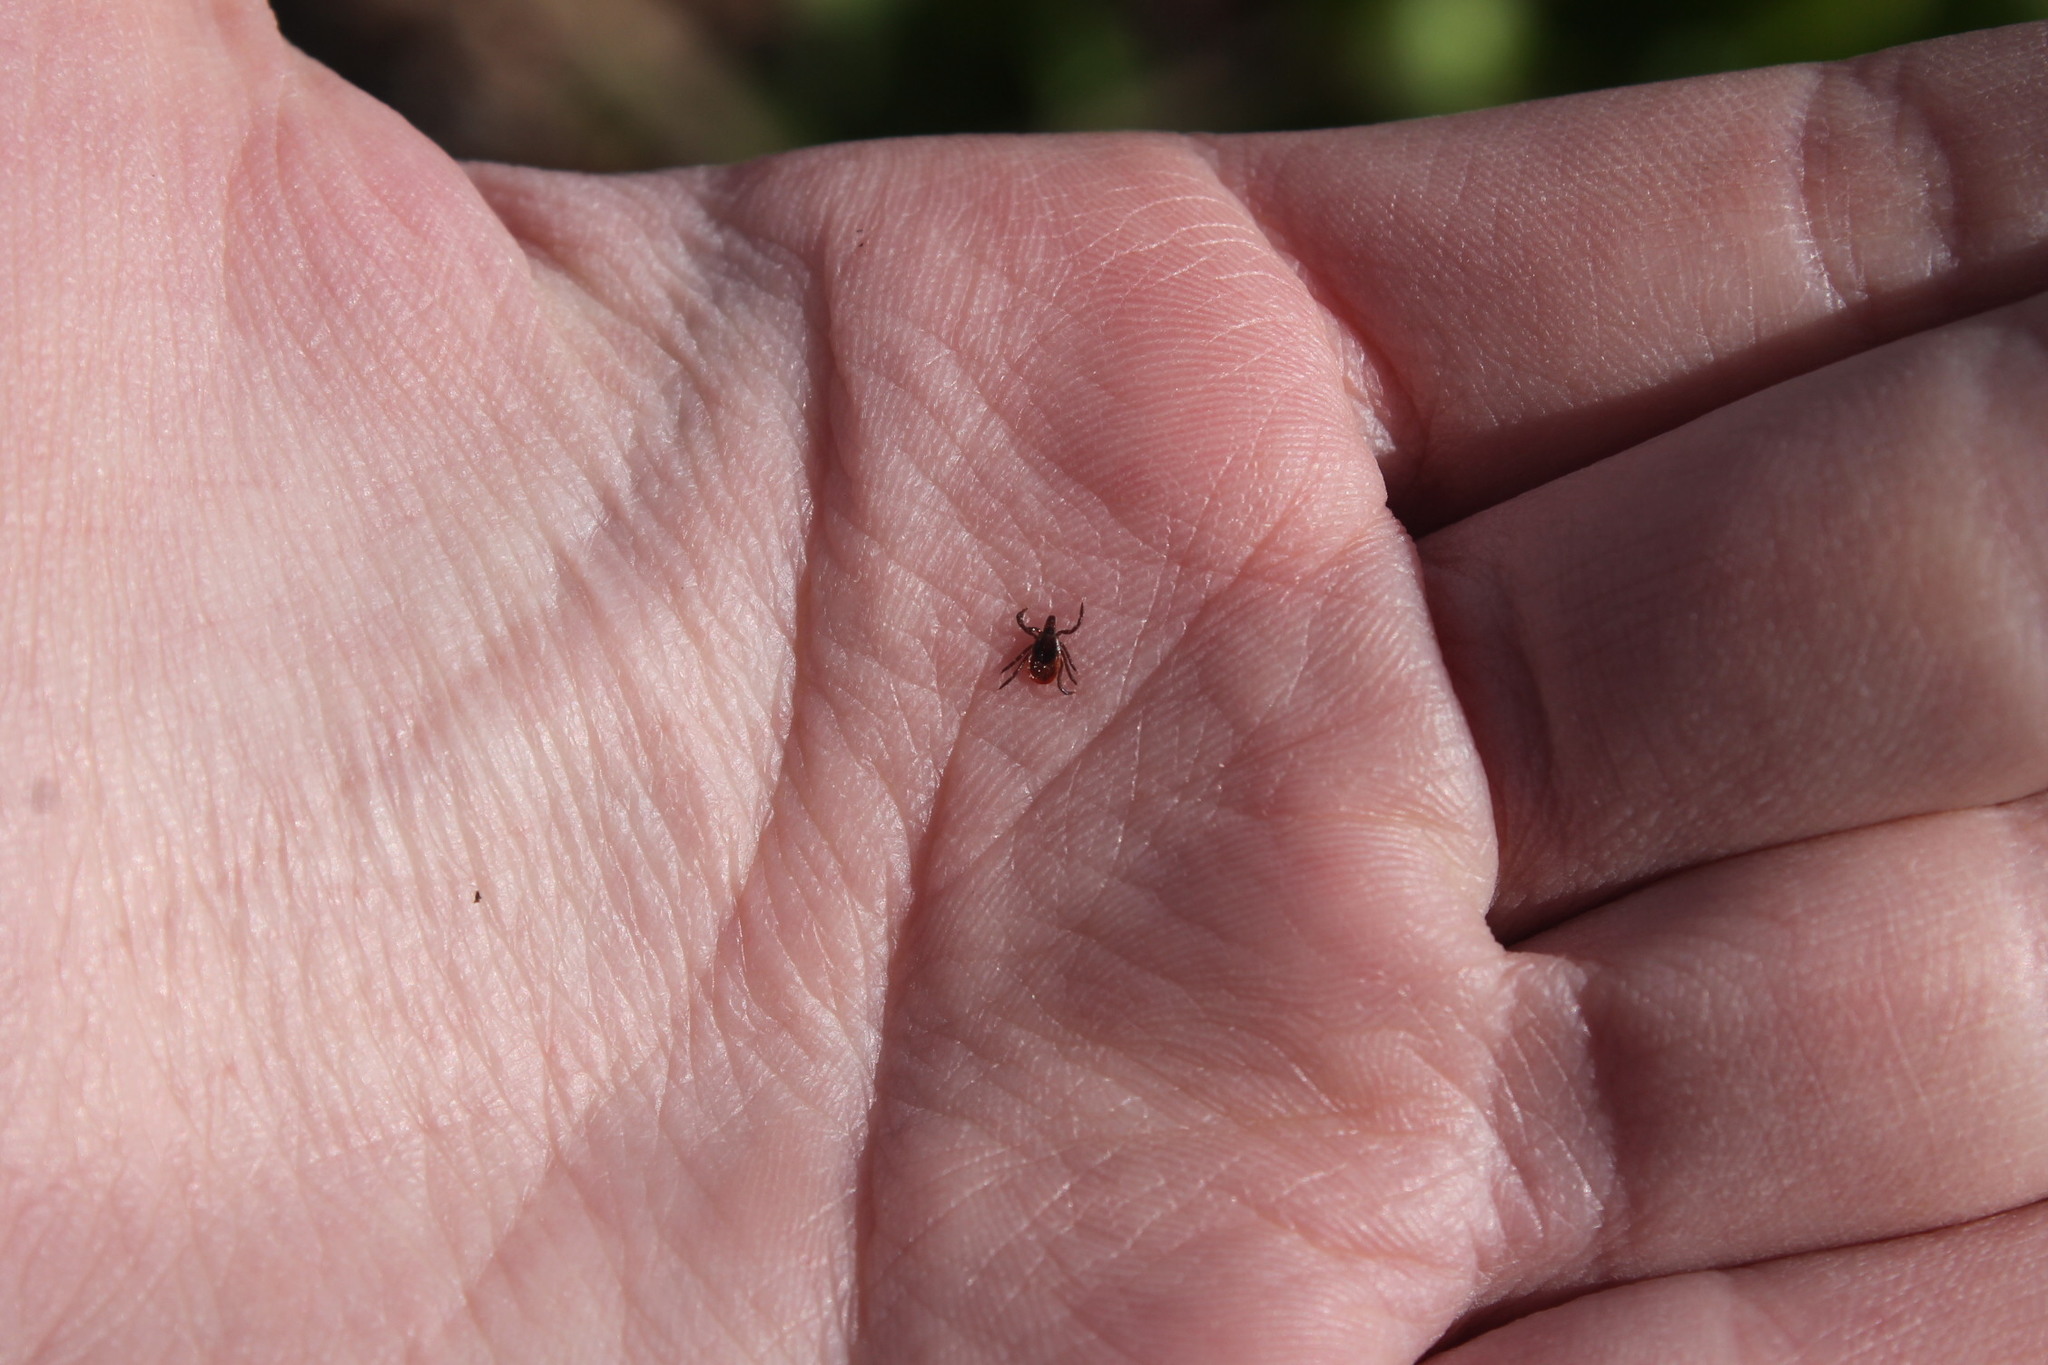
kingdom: Animalia
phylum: Arthropoda
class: Arachnida
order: Ixodida
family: Ixodidae
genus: Ixodes
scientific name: Ixodes scapularis
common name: Black legged tick
